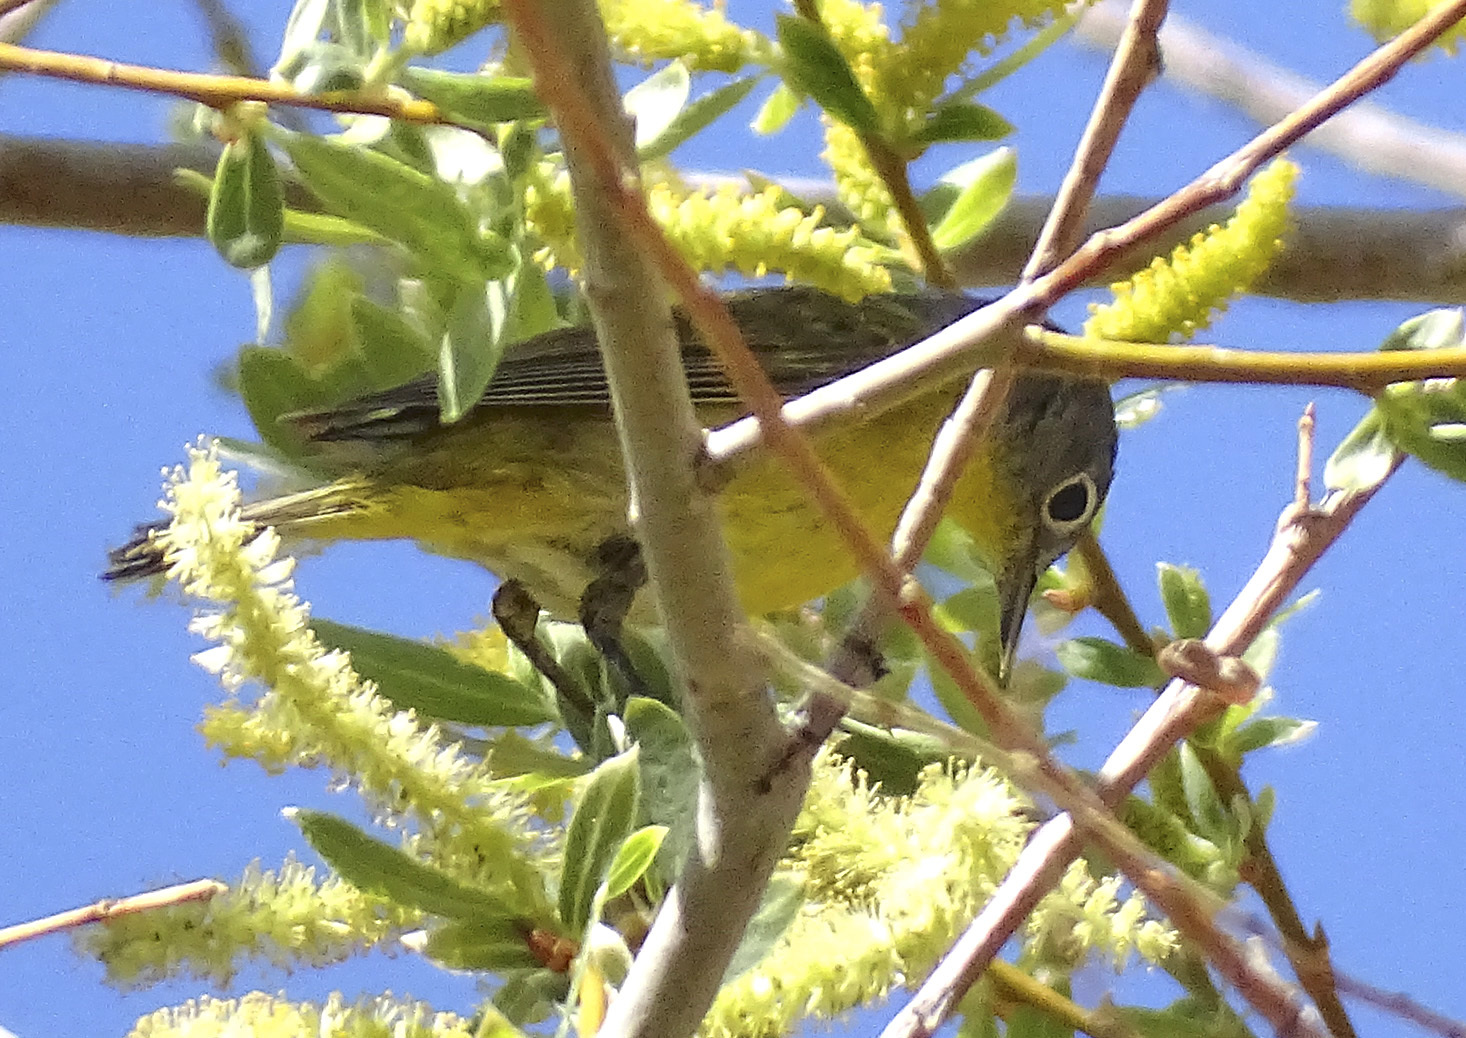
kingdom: Animalia
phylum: Chordata
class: Aves
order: Passeriformes
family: Parulidae
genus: Leiothlypis
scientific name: Leiothlypis ruficapilla
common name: Nashville warbler
